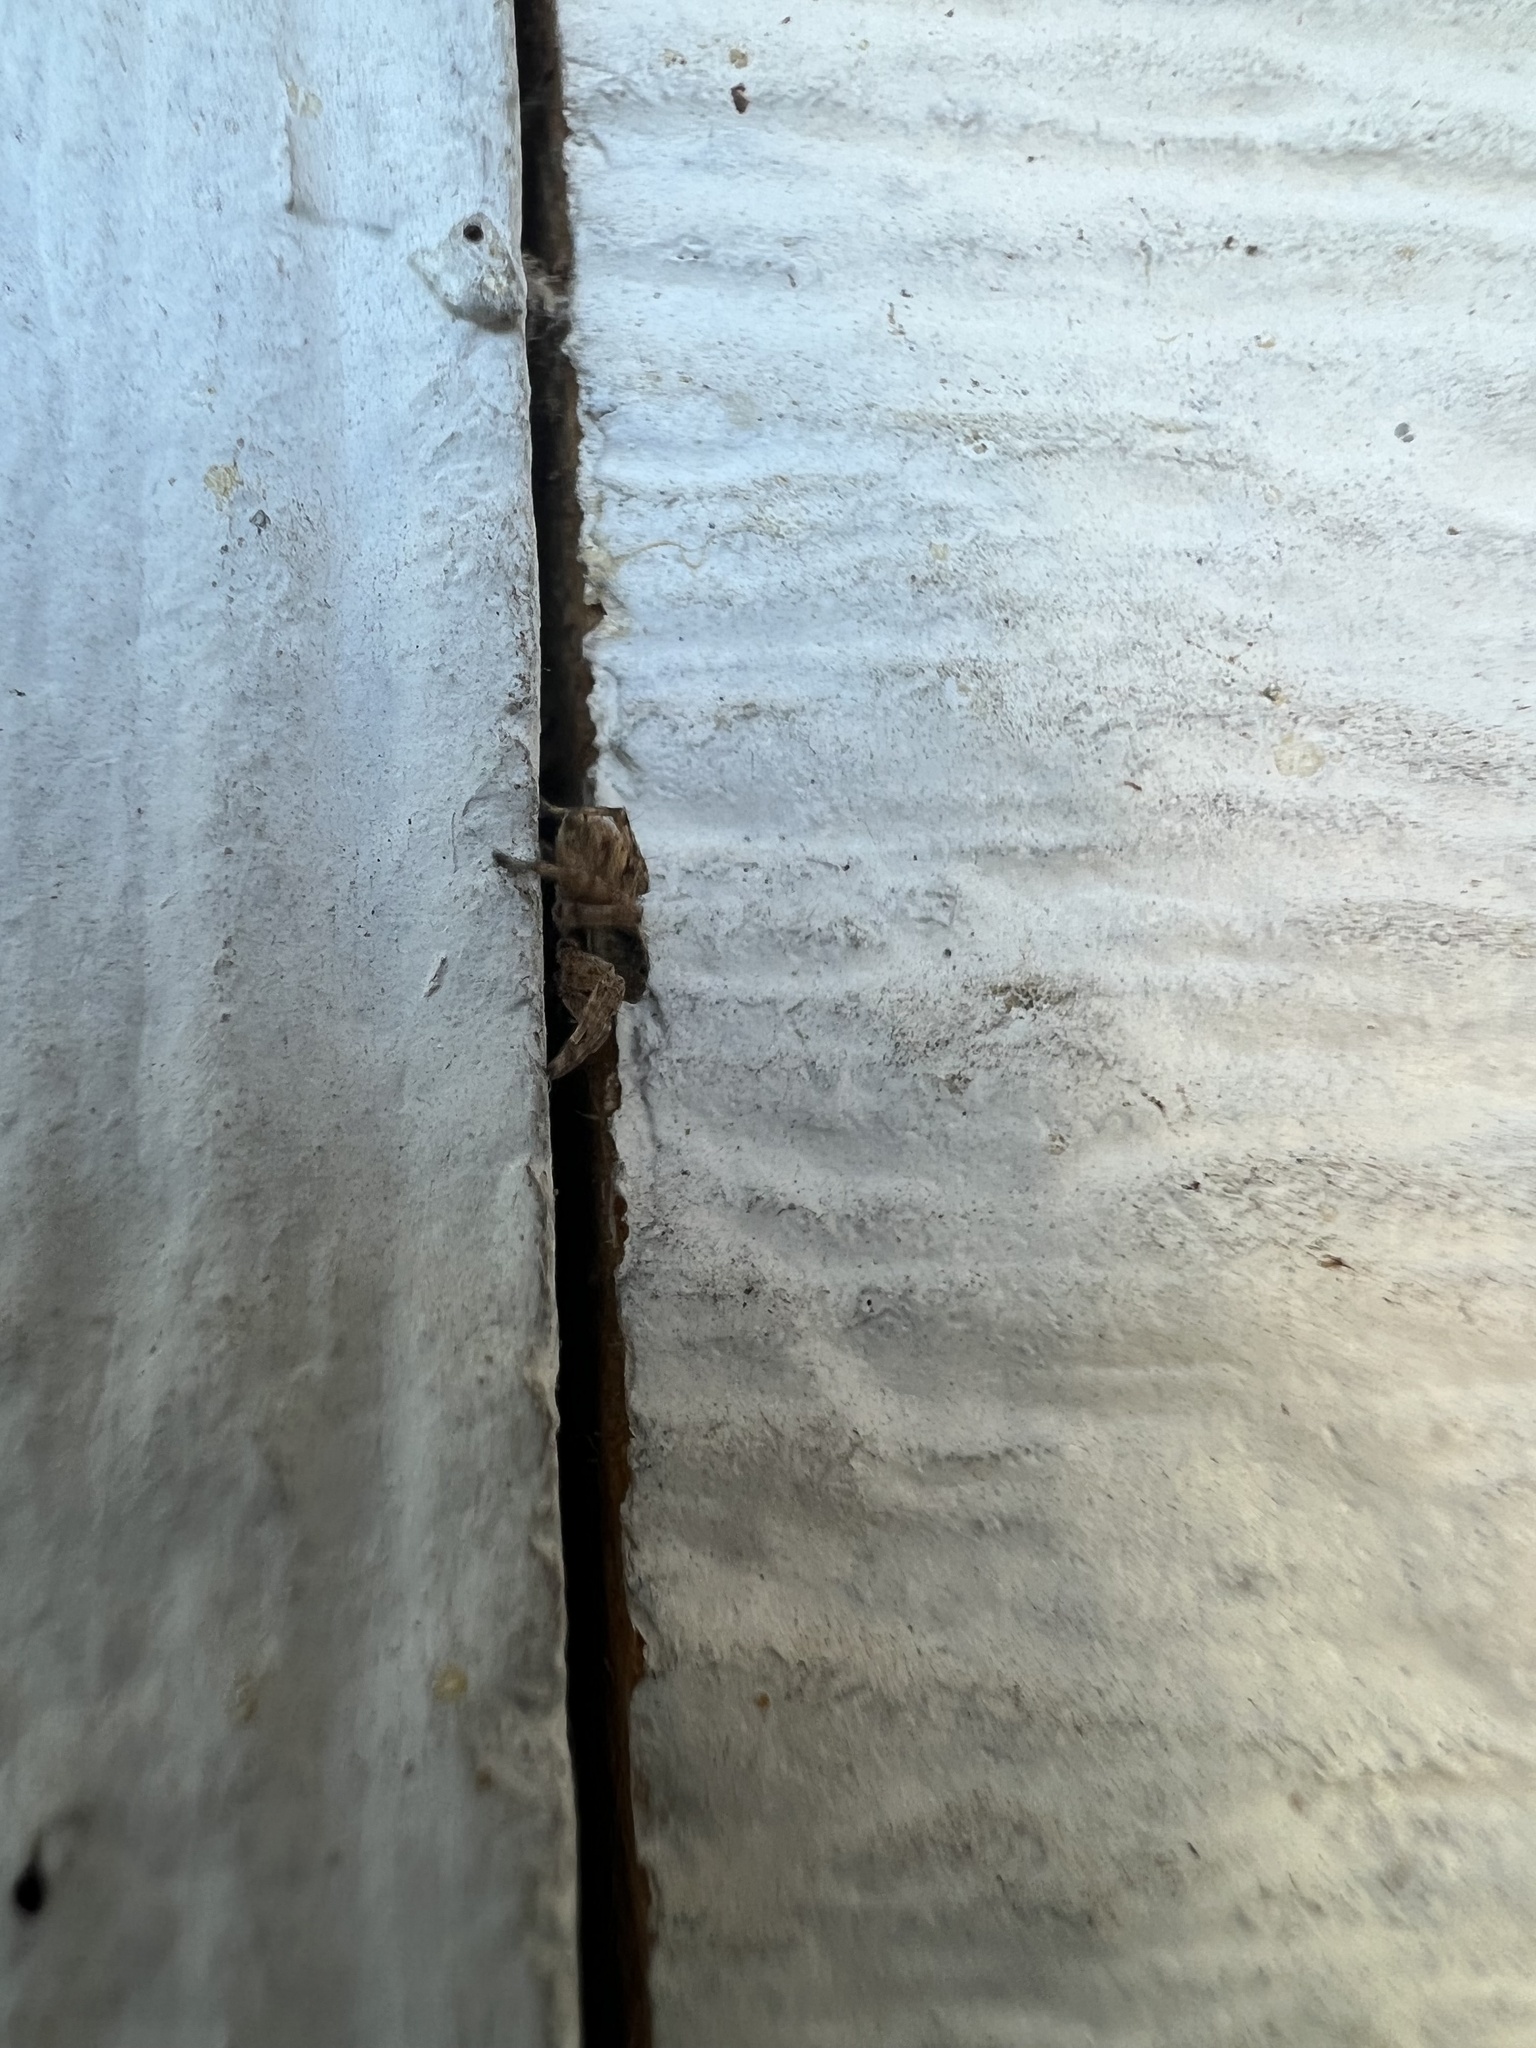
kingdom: Animalia
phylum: Arthropoda
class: Arachnida
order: Araneae
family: Salticidae
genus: Attulus
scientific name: Attulus fasciger
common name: Asiatic wall jumping spider
